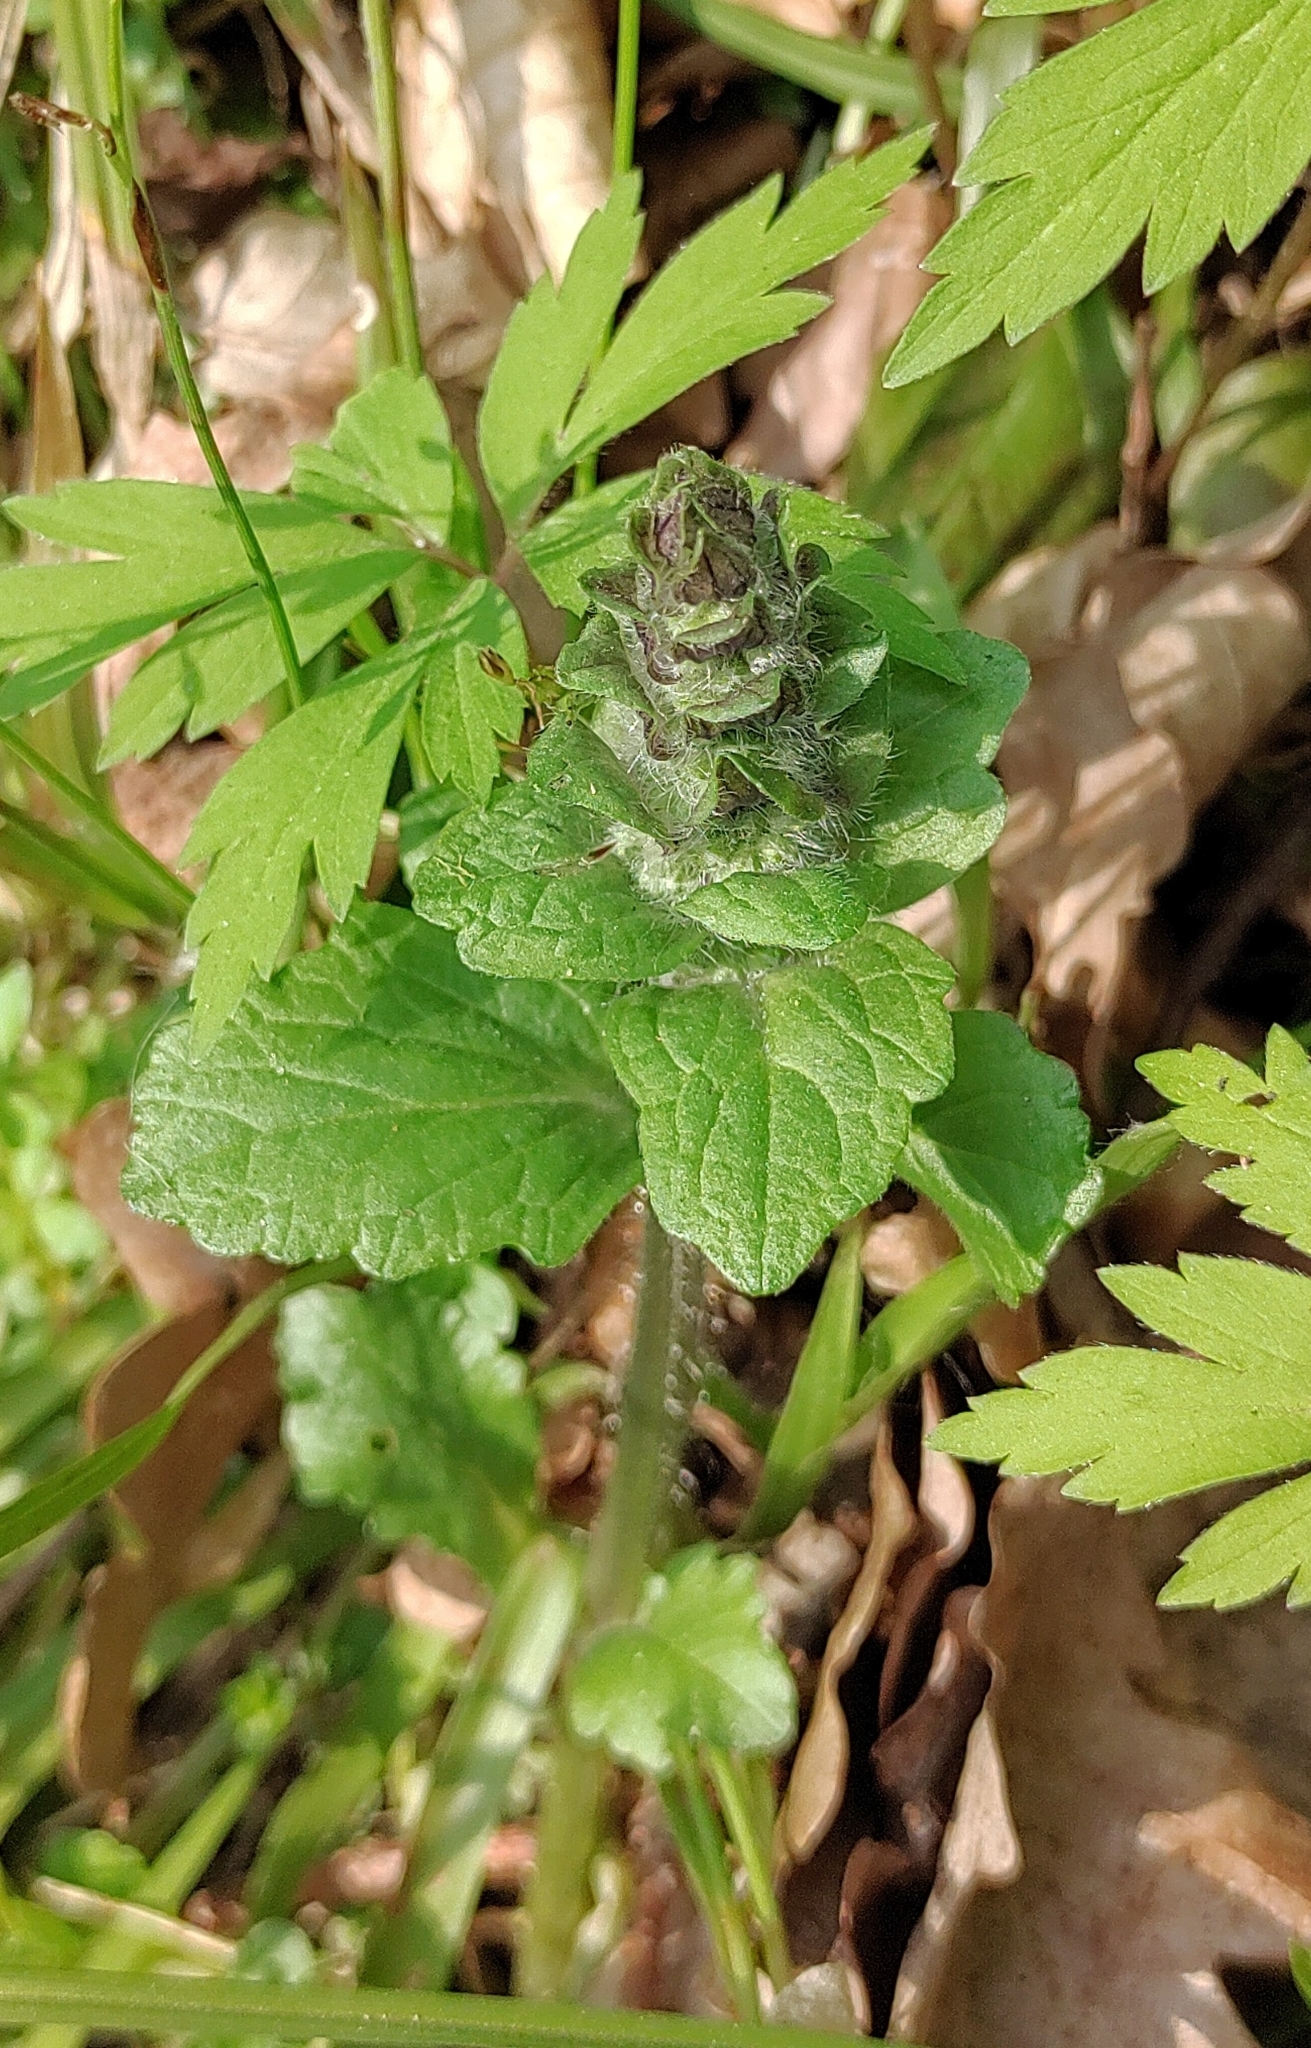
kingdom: Plantae
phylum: Tracheophyta
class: Magnoliopsida
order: Lamiales
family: Lamiaceae
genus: Ajuga
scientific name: Ajuga reptans
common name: Bugle
